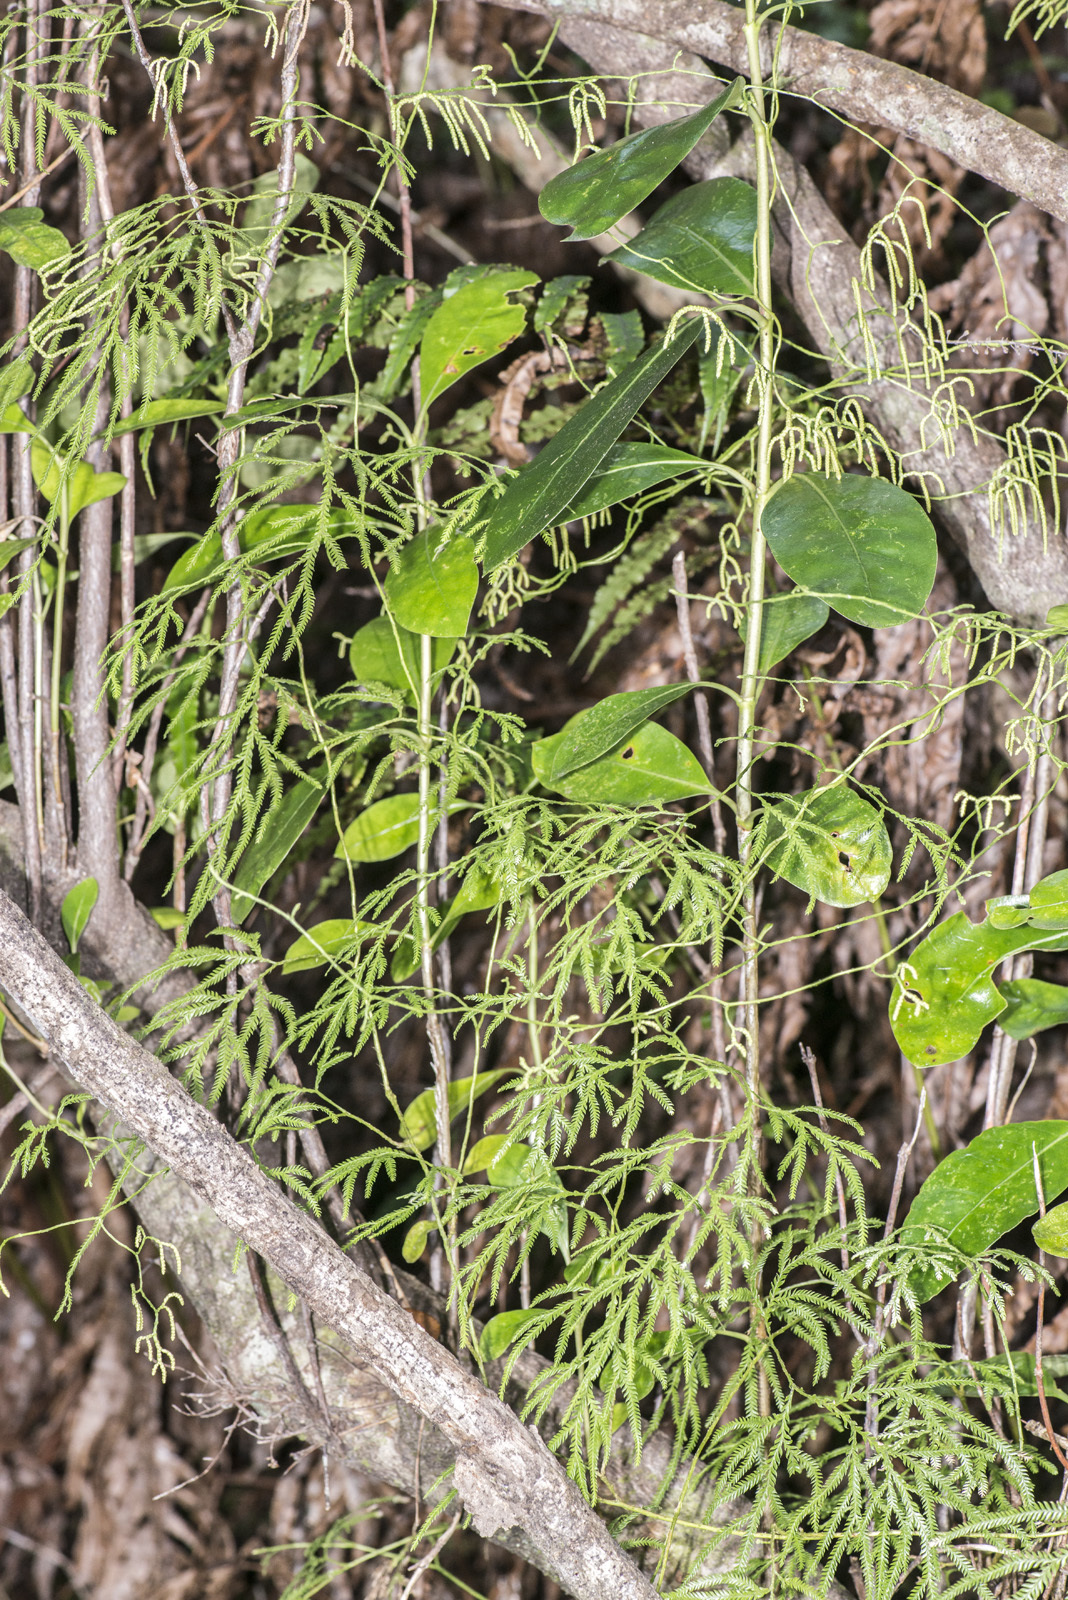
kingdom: Plantae
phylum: Tracheophyta
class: Lycopodiopsida
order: Lycopodiales
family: Lycopodiaceae
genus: Lycopodium
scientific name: Lycopodium volubile
